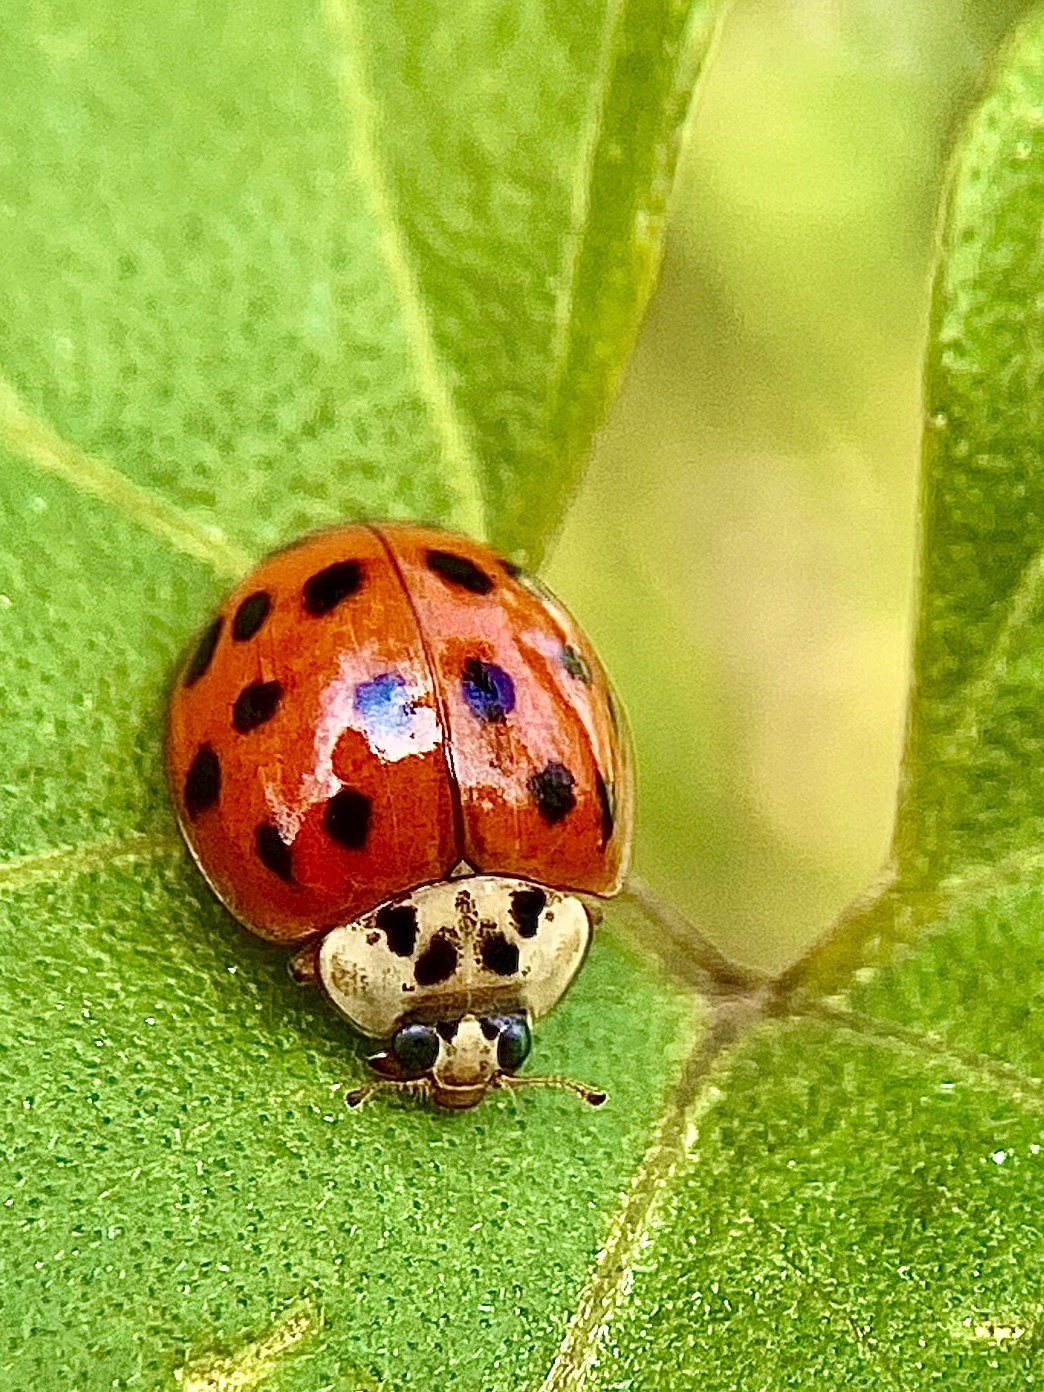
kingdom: Animalia
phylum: Arthropoda
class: Insecta
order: Coleoptera
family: Coccinellidae
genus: Harmonia
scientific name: Harmonia axyridis
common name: Harlequin ladybird
